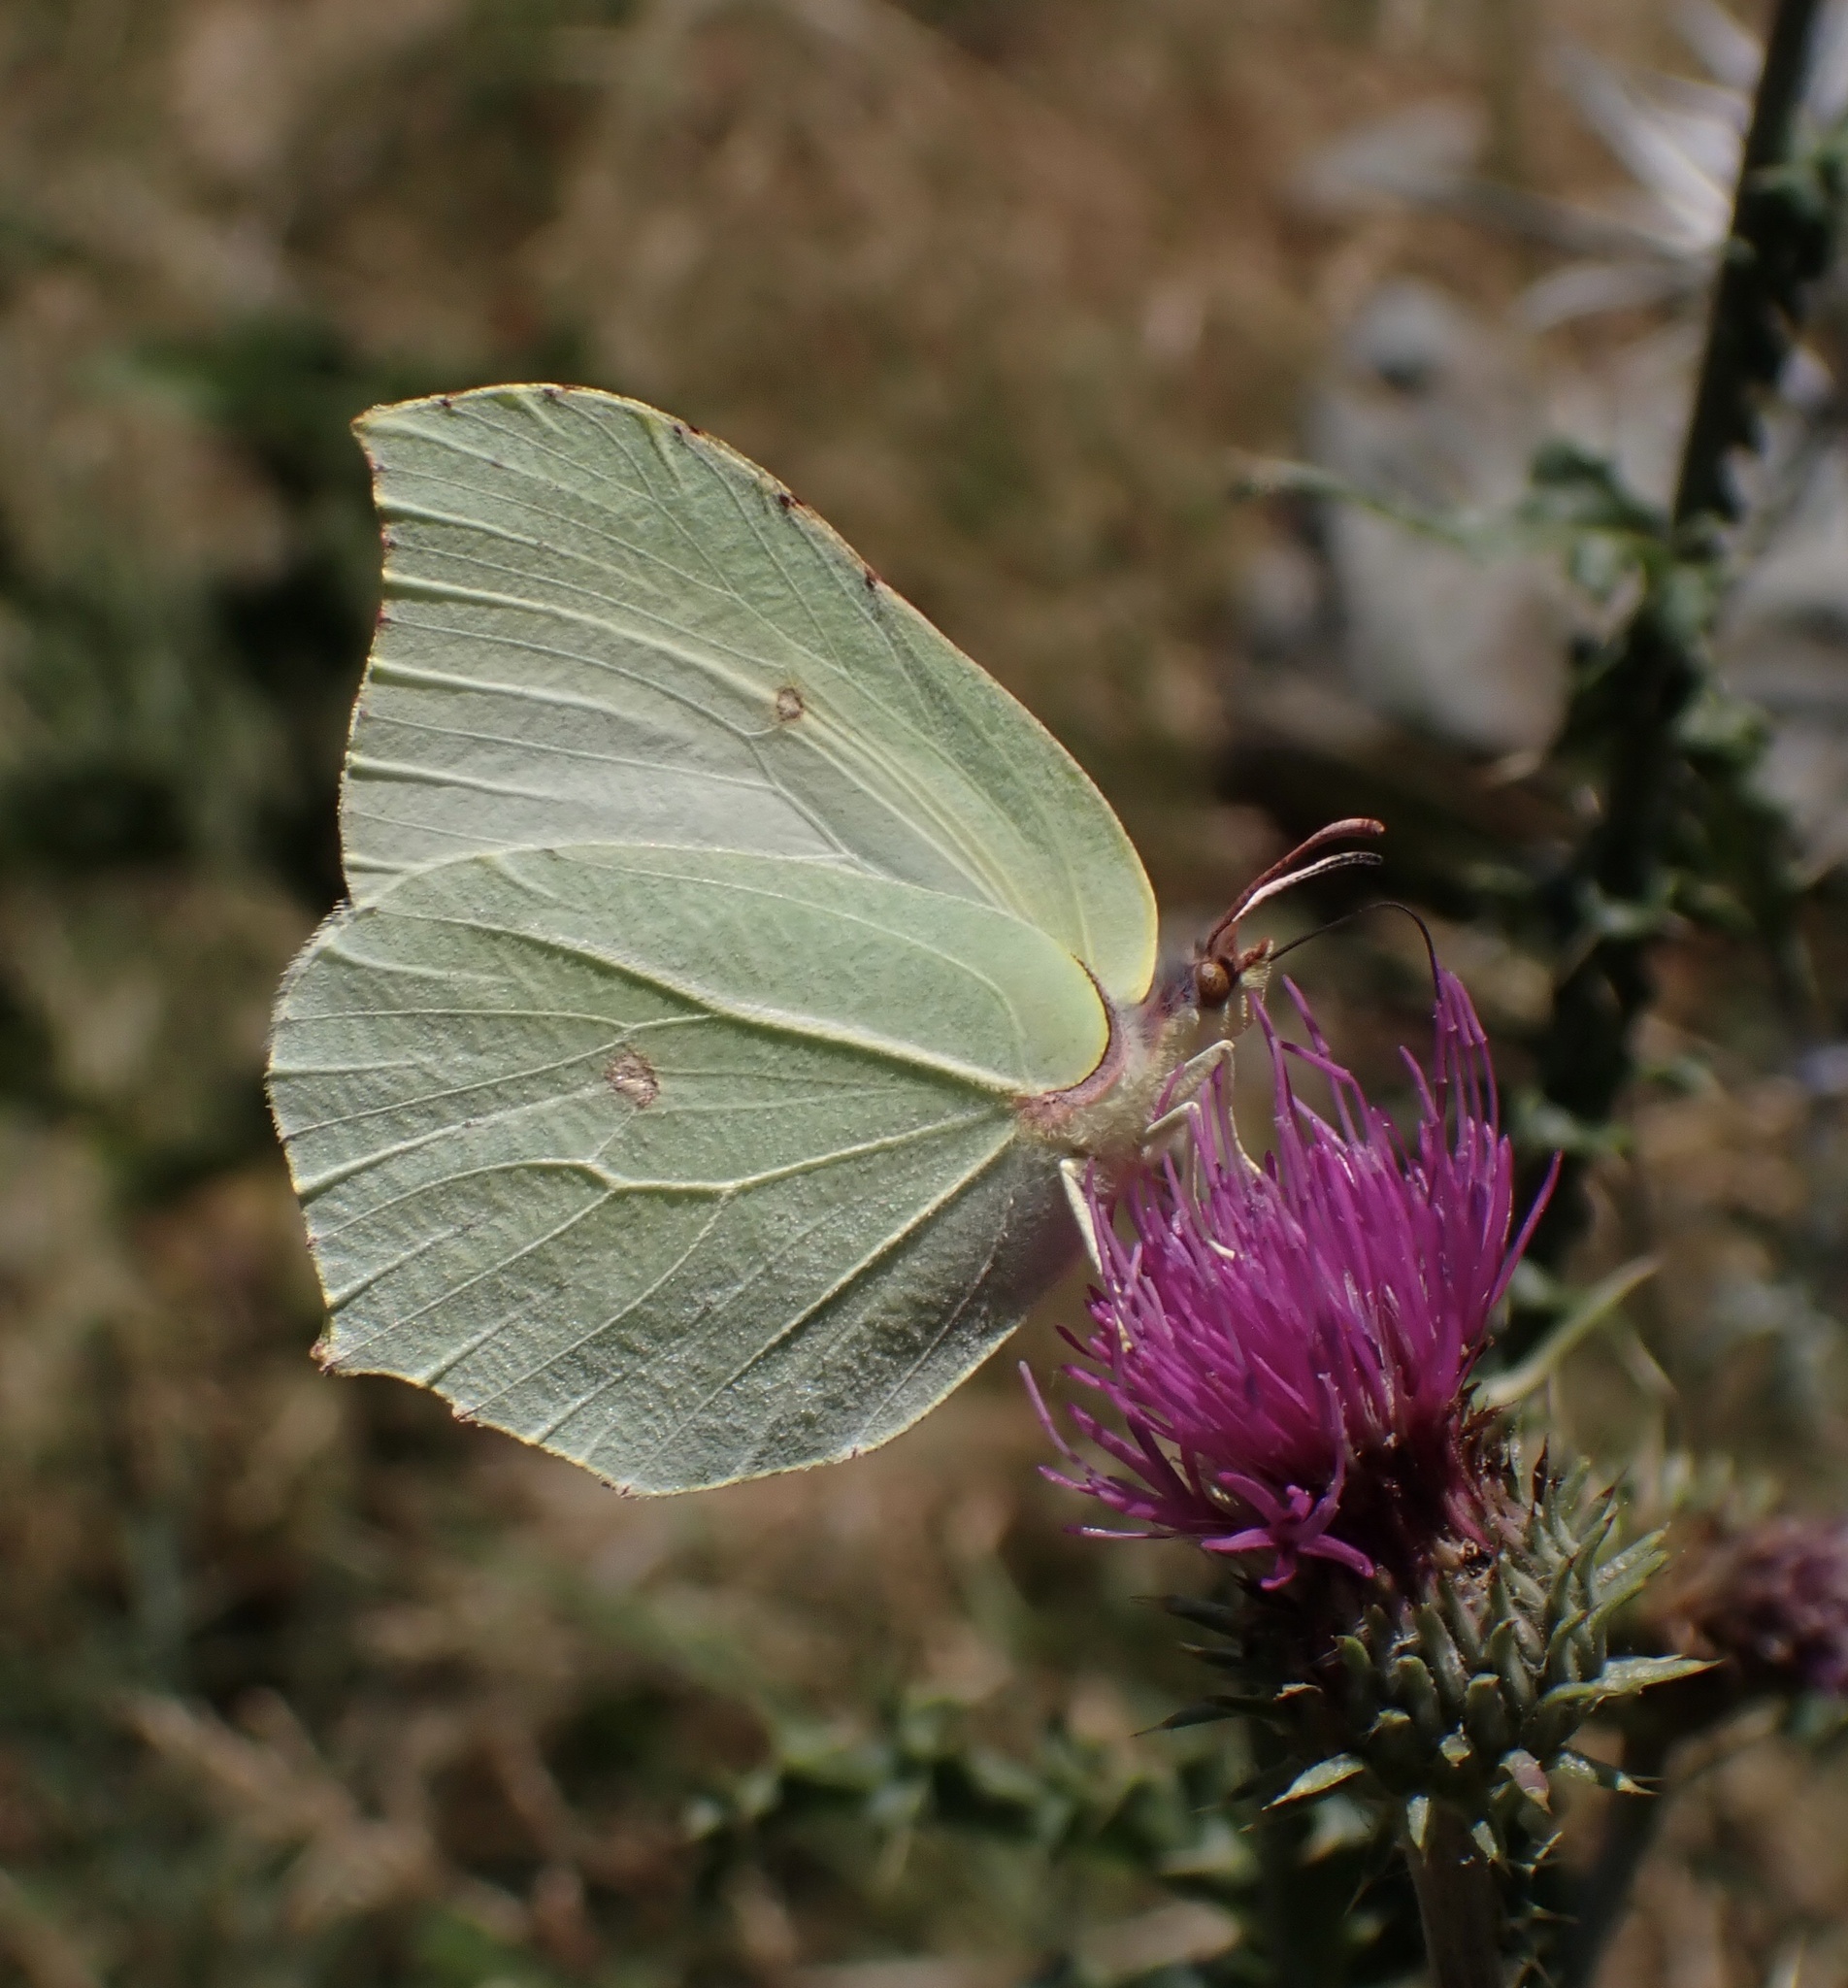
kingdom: Animalia
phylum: Arthropoda
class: Insecta
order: Lepidoptera
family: Pieridae
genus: Gonepteryx
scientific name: Gonepteryx rhamni
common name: Brimstone
